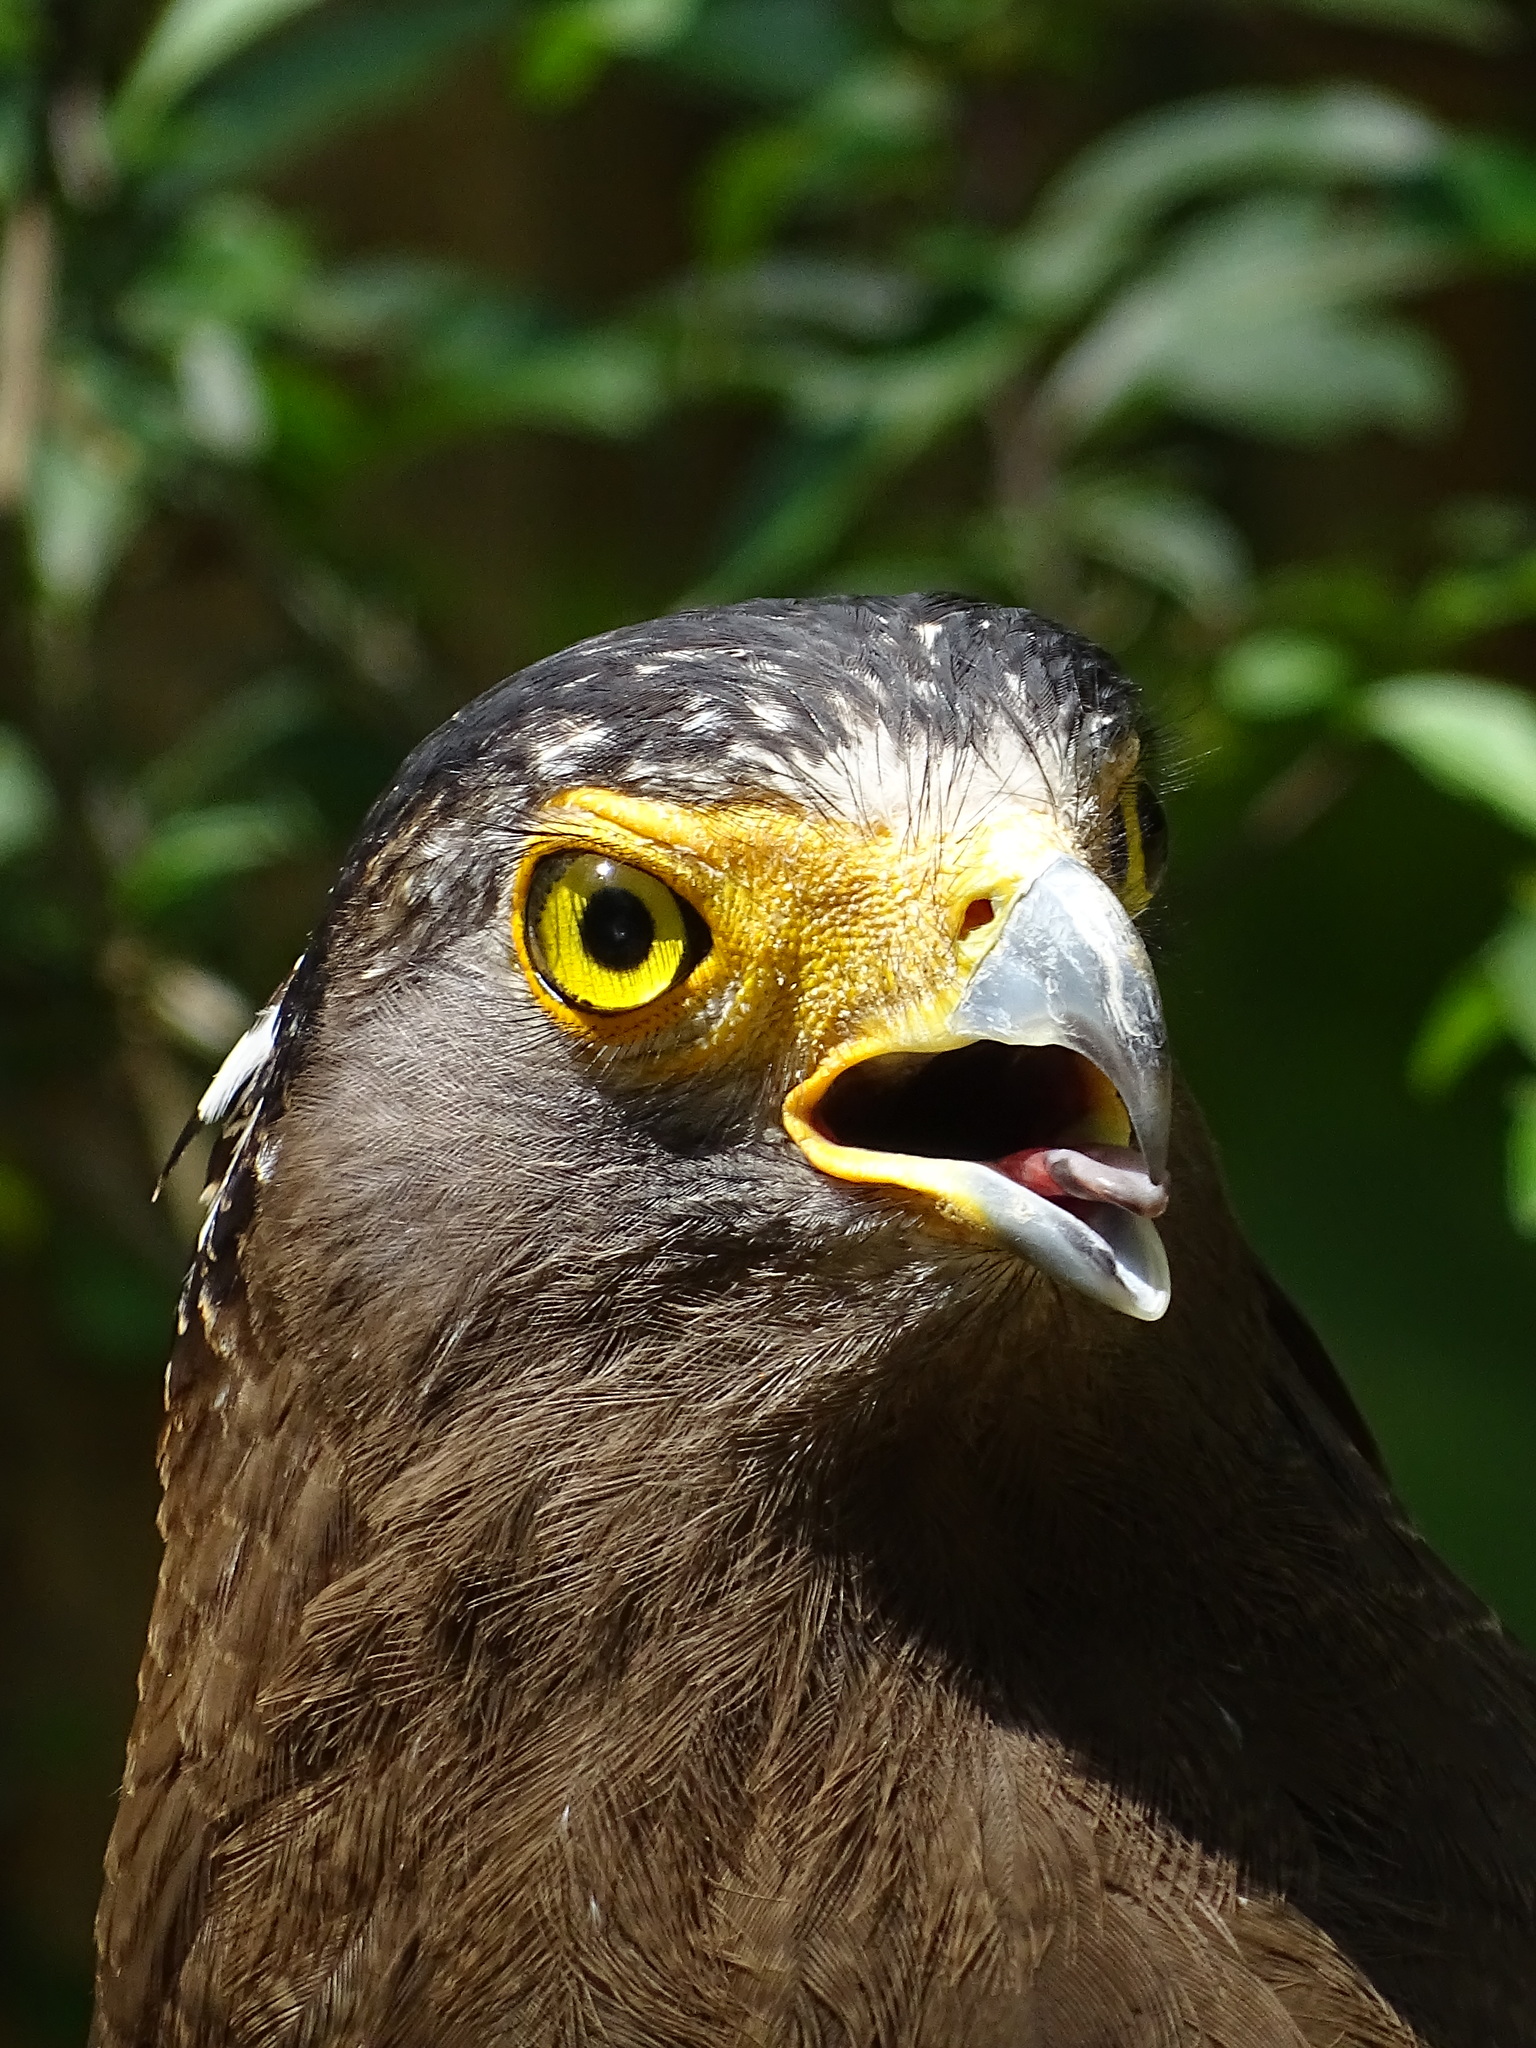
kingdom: Animalia
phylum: Chordata
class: Aves
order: Accipitriformes
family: Accipitridae
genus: Spilornis
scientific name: Spilornis cheela
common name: Crested serpent eagle
